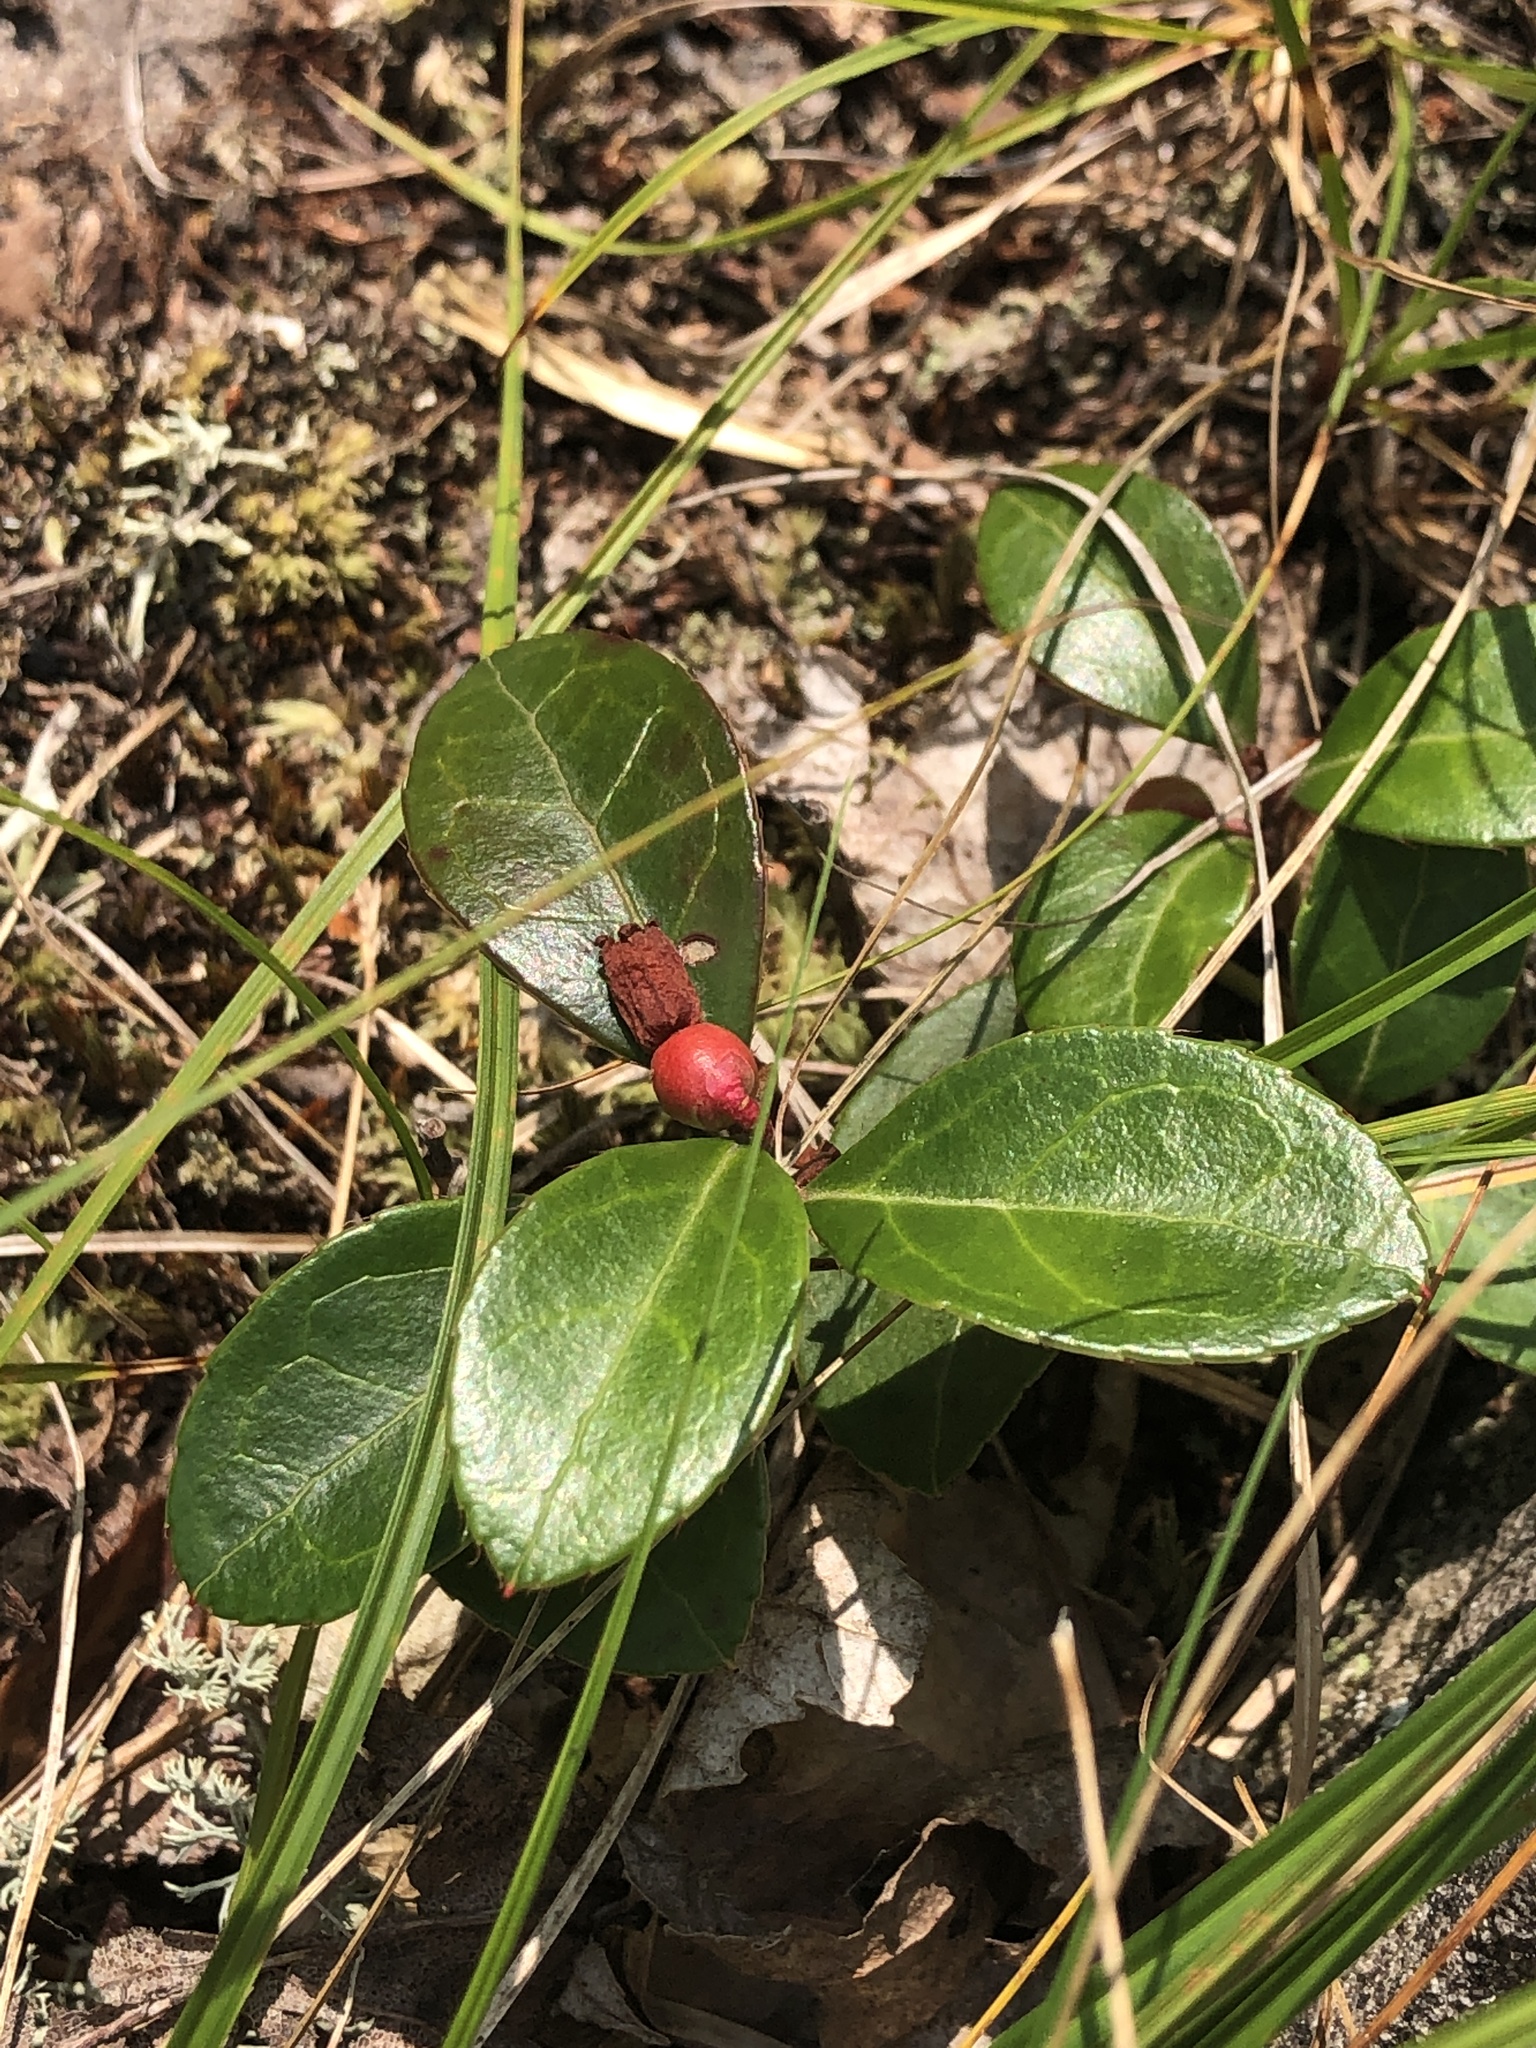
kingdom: Plantae
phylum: Tracheophyta
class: Magnoliopsida
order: Ericales
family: Ericaceae
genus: Gaultheria
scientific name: Gaultheria procumbens
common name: Checkerberry
